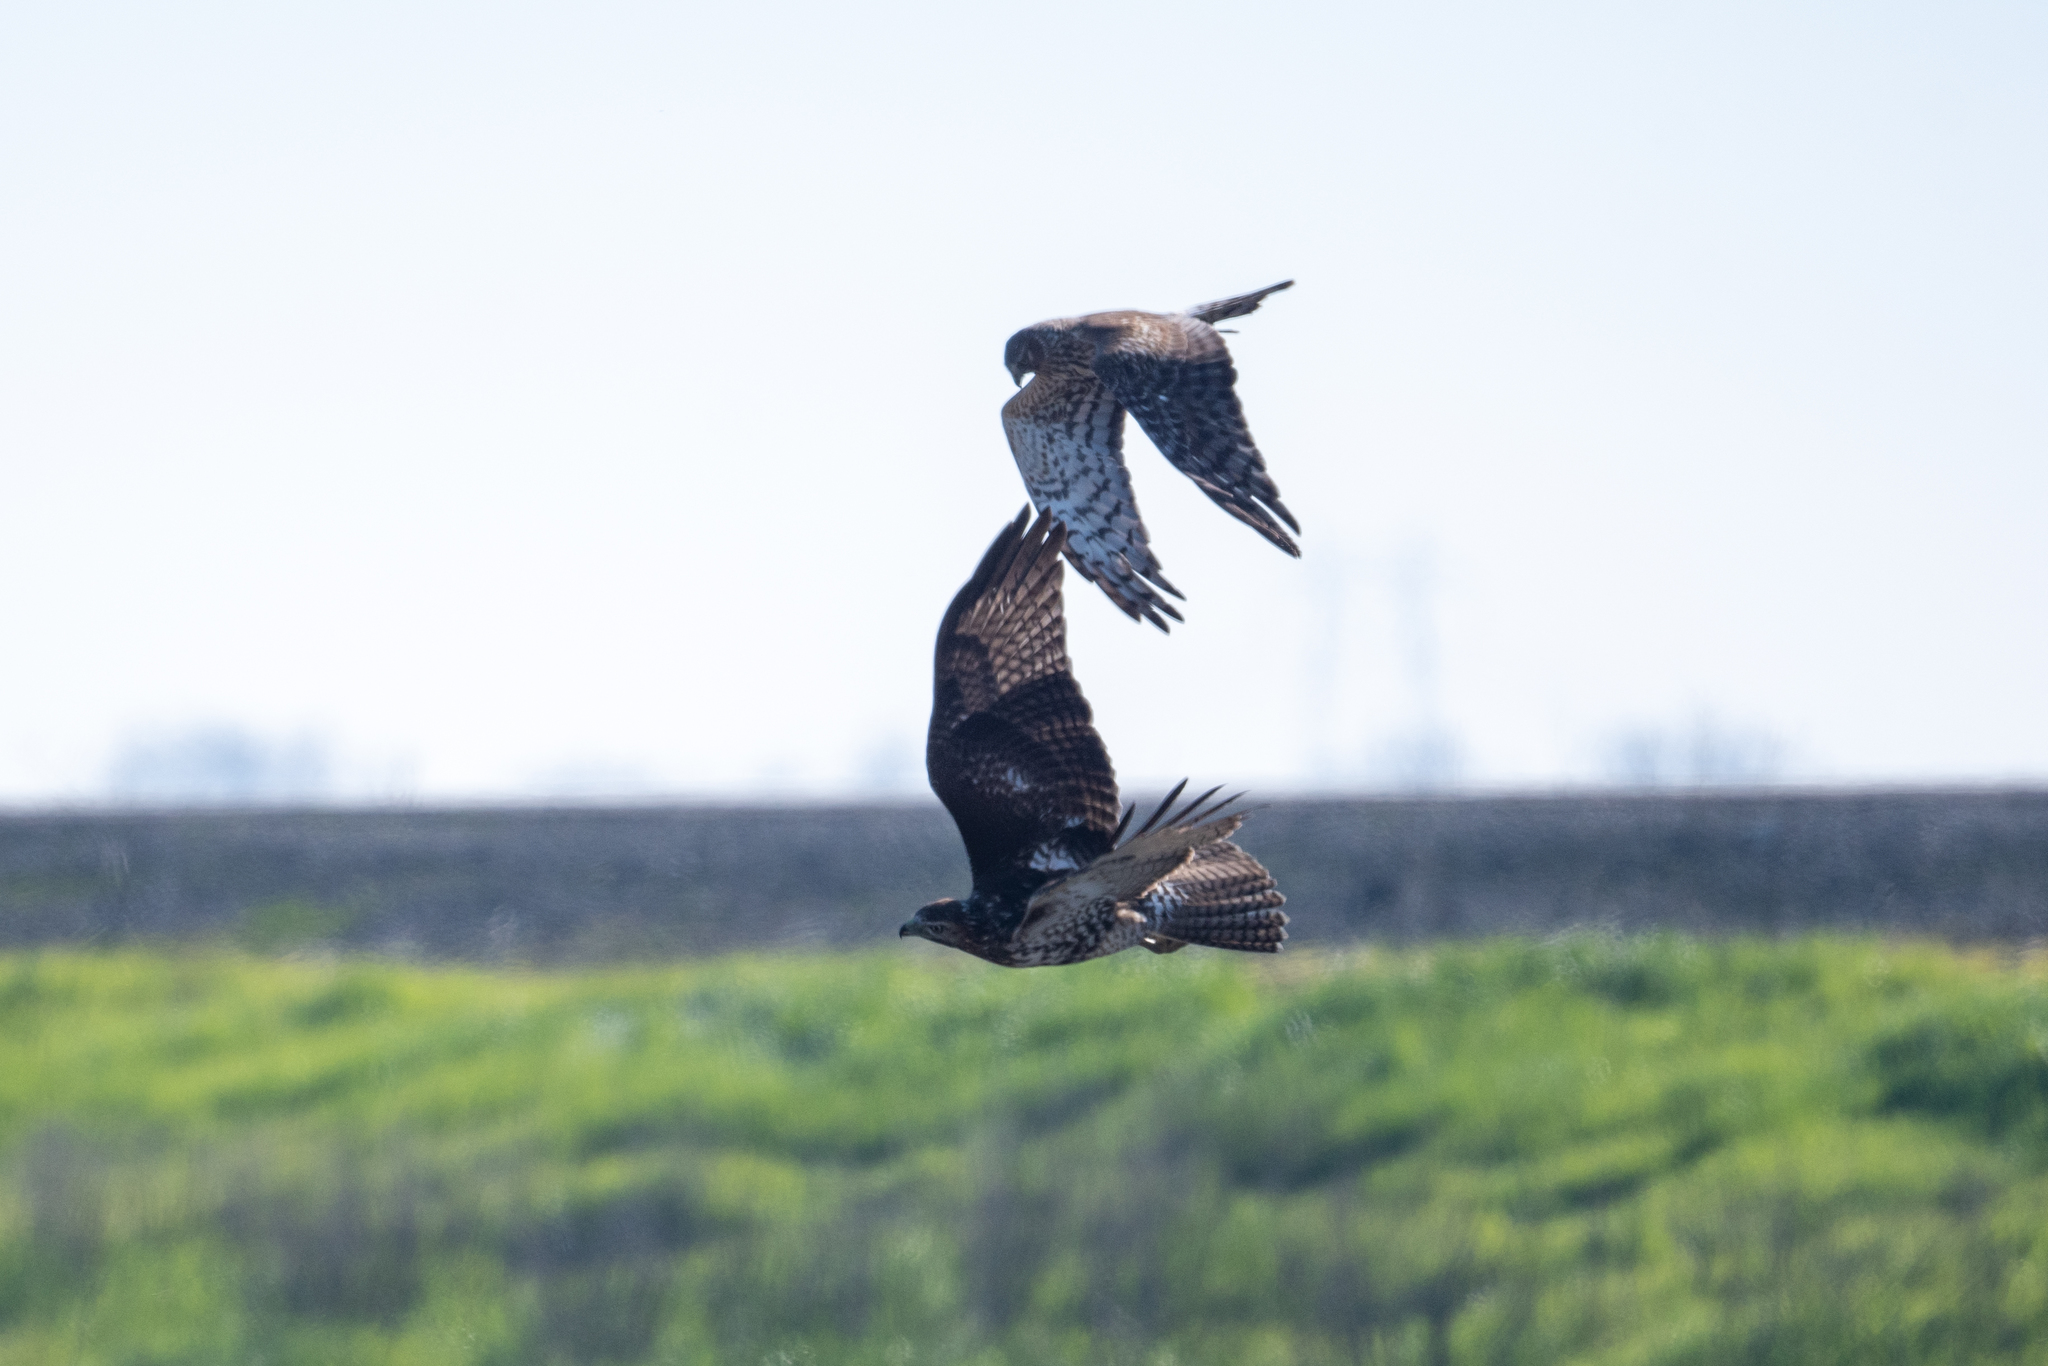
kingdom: Animalia
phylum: Chordata
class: Aves
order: Accipitriformes
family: Accipitridae
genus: Circus
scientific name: Circus cyaneus
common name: Hen harrier
